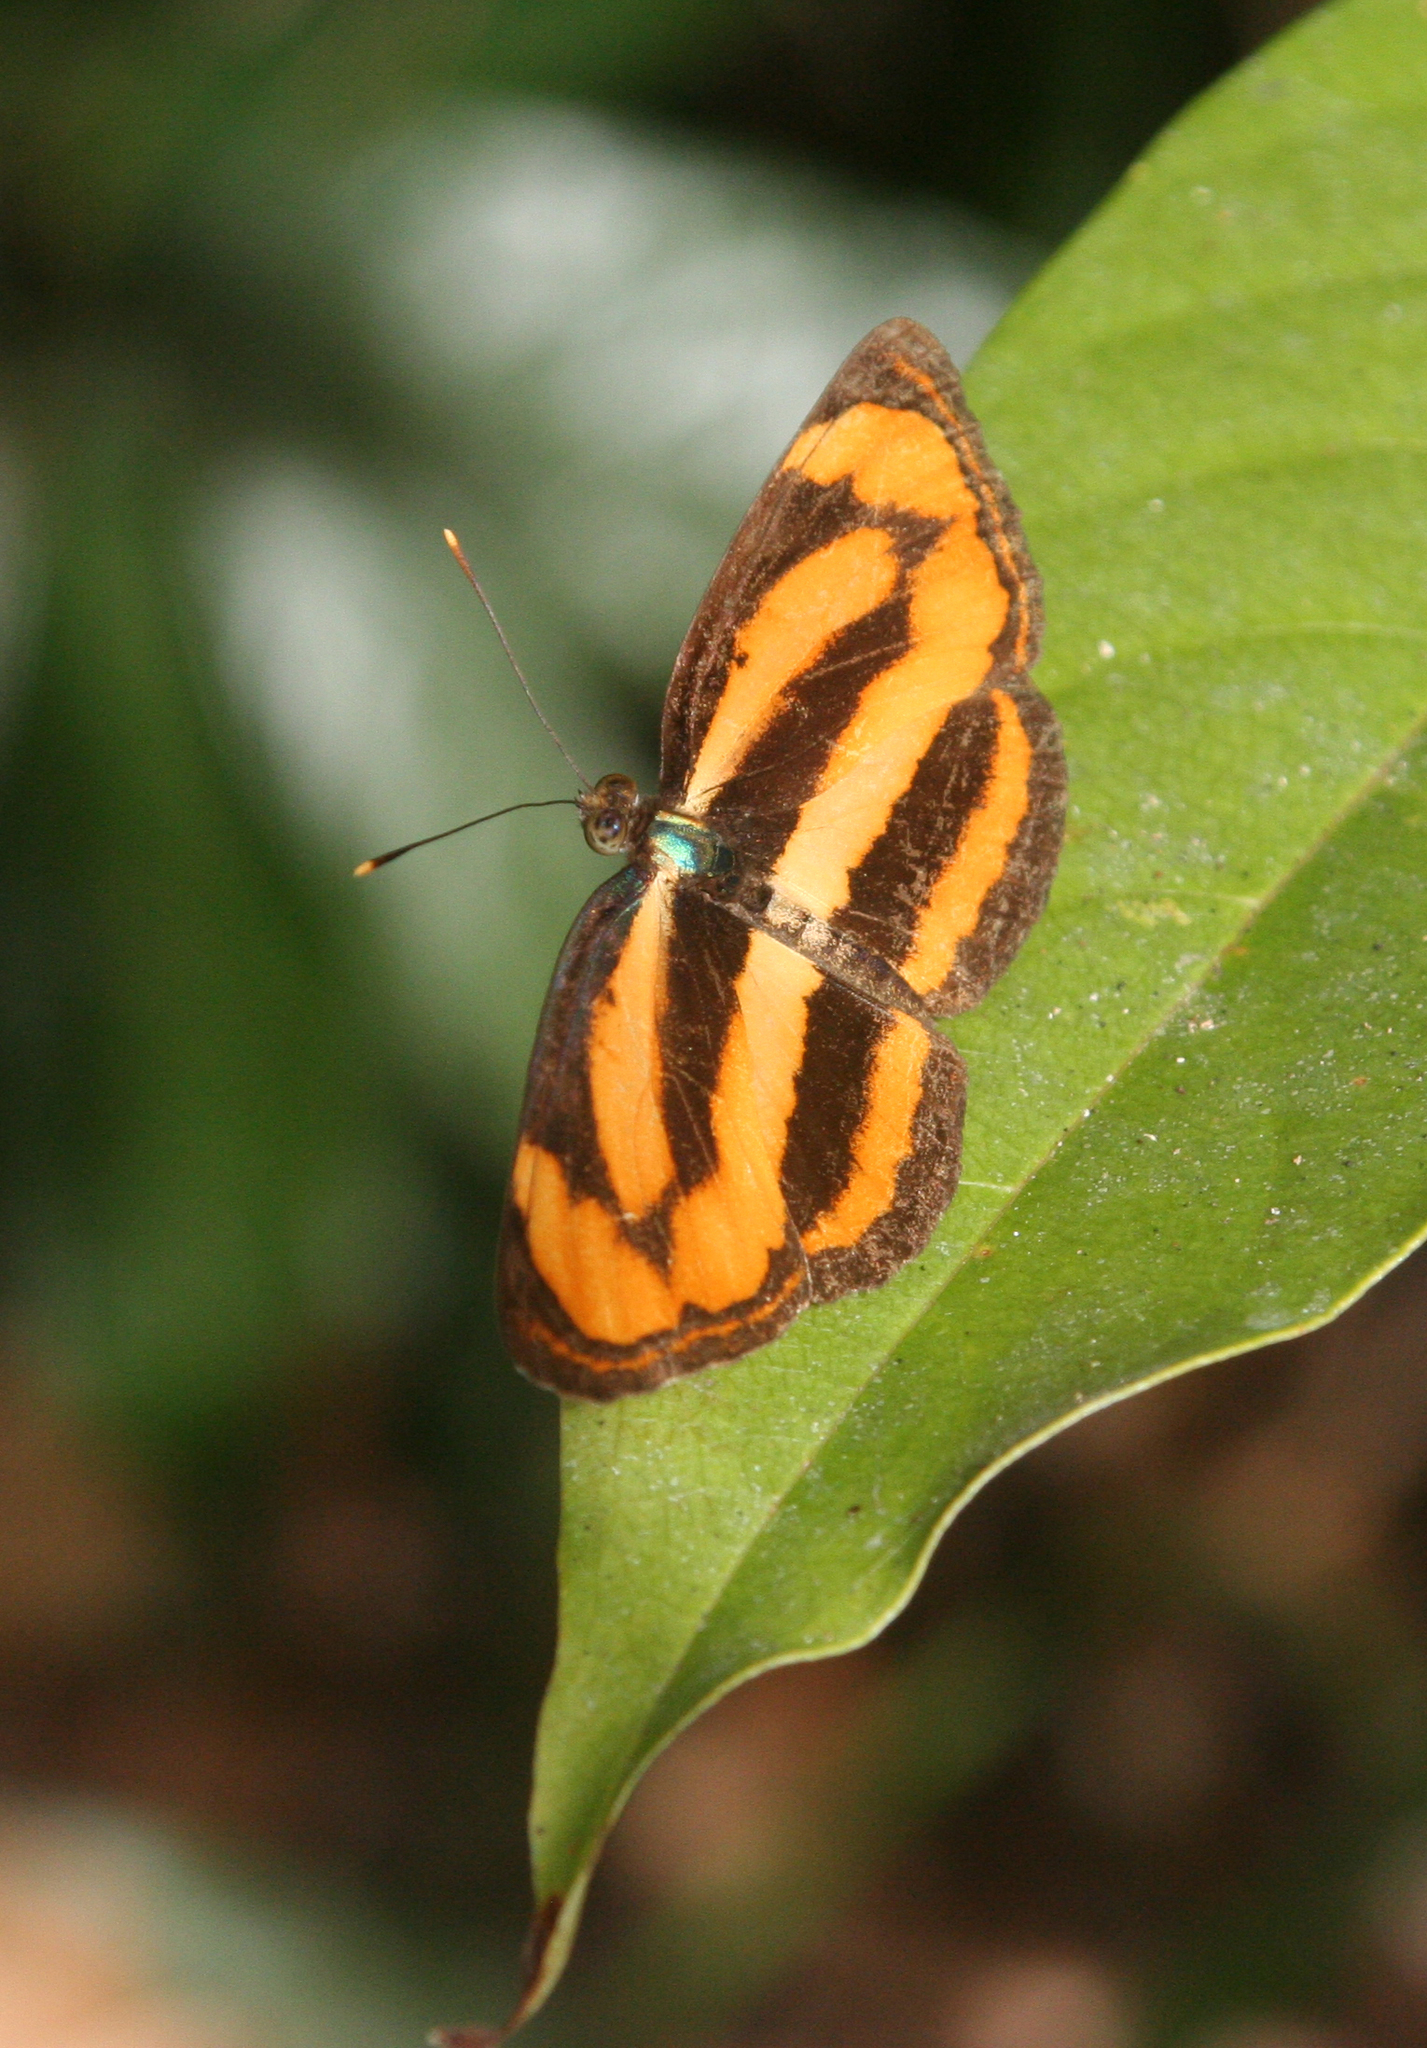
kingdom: Animalia
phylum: Arthropoda
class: Insecta
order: Lepidoptera
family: Nymphalidae
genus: Pantoporia
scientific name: Pantoporia sandaka
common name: Extra lascar
